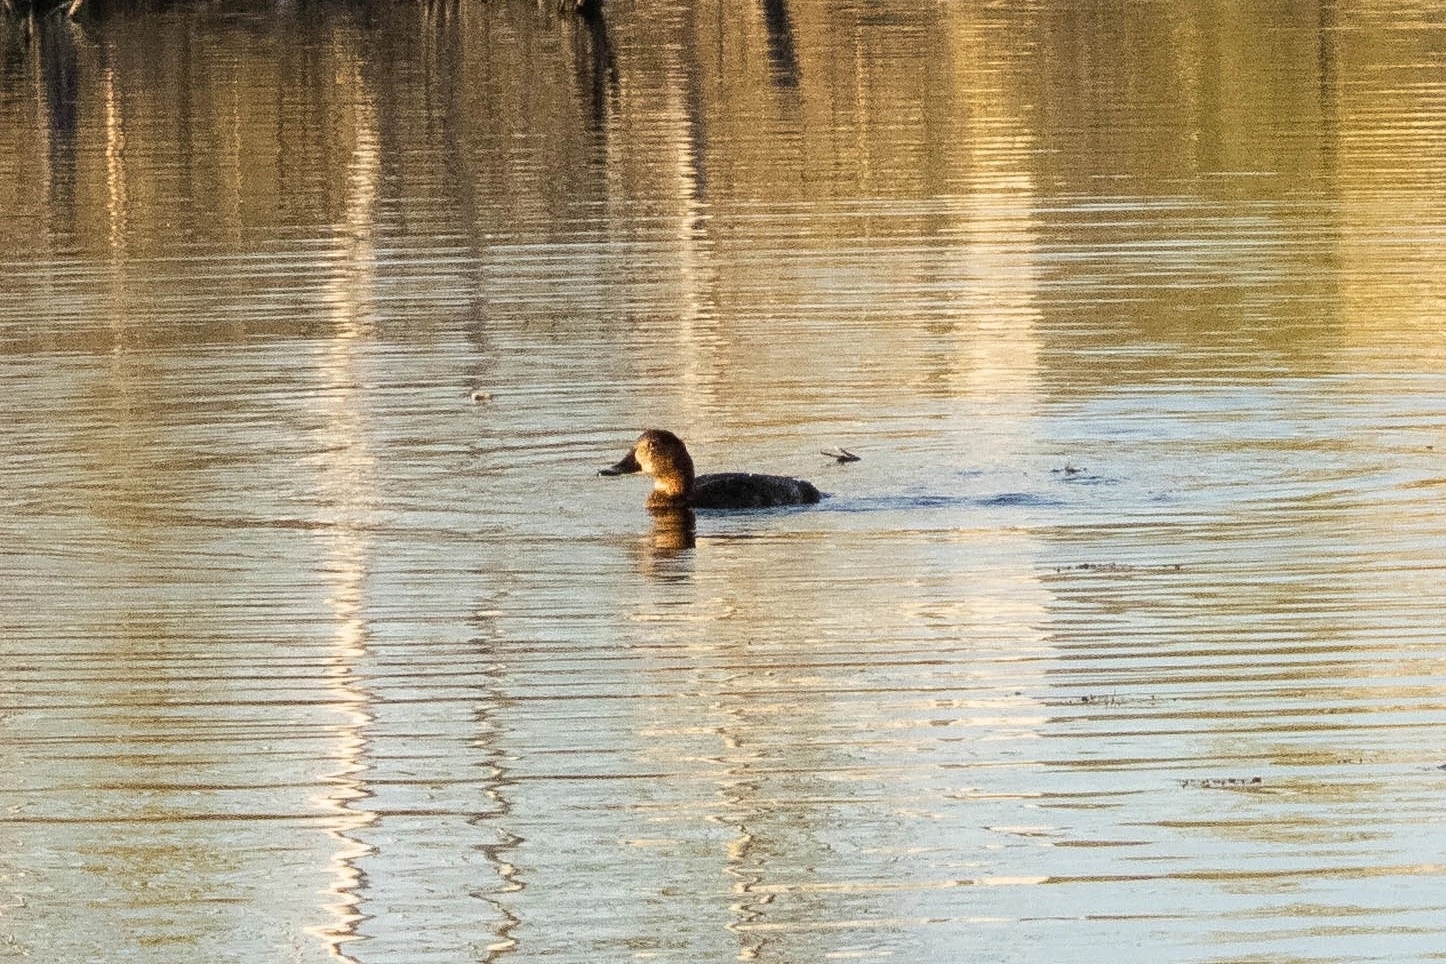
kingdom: Animalia
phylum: Chordata
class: Aves
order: Anseriformes
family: Anatidae
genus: Aythya
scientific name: Aythya ferina
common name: Common pochard
